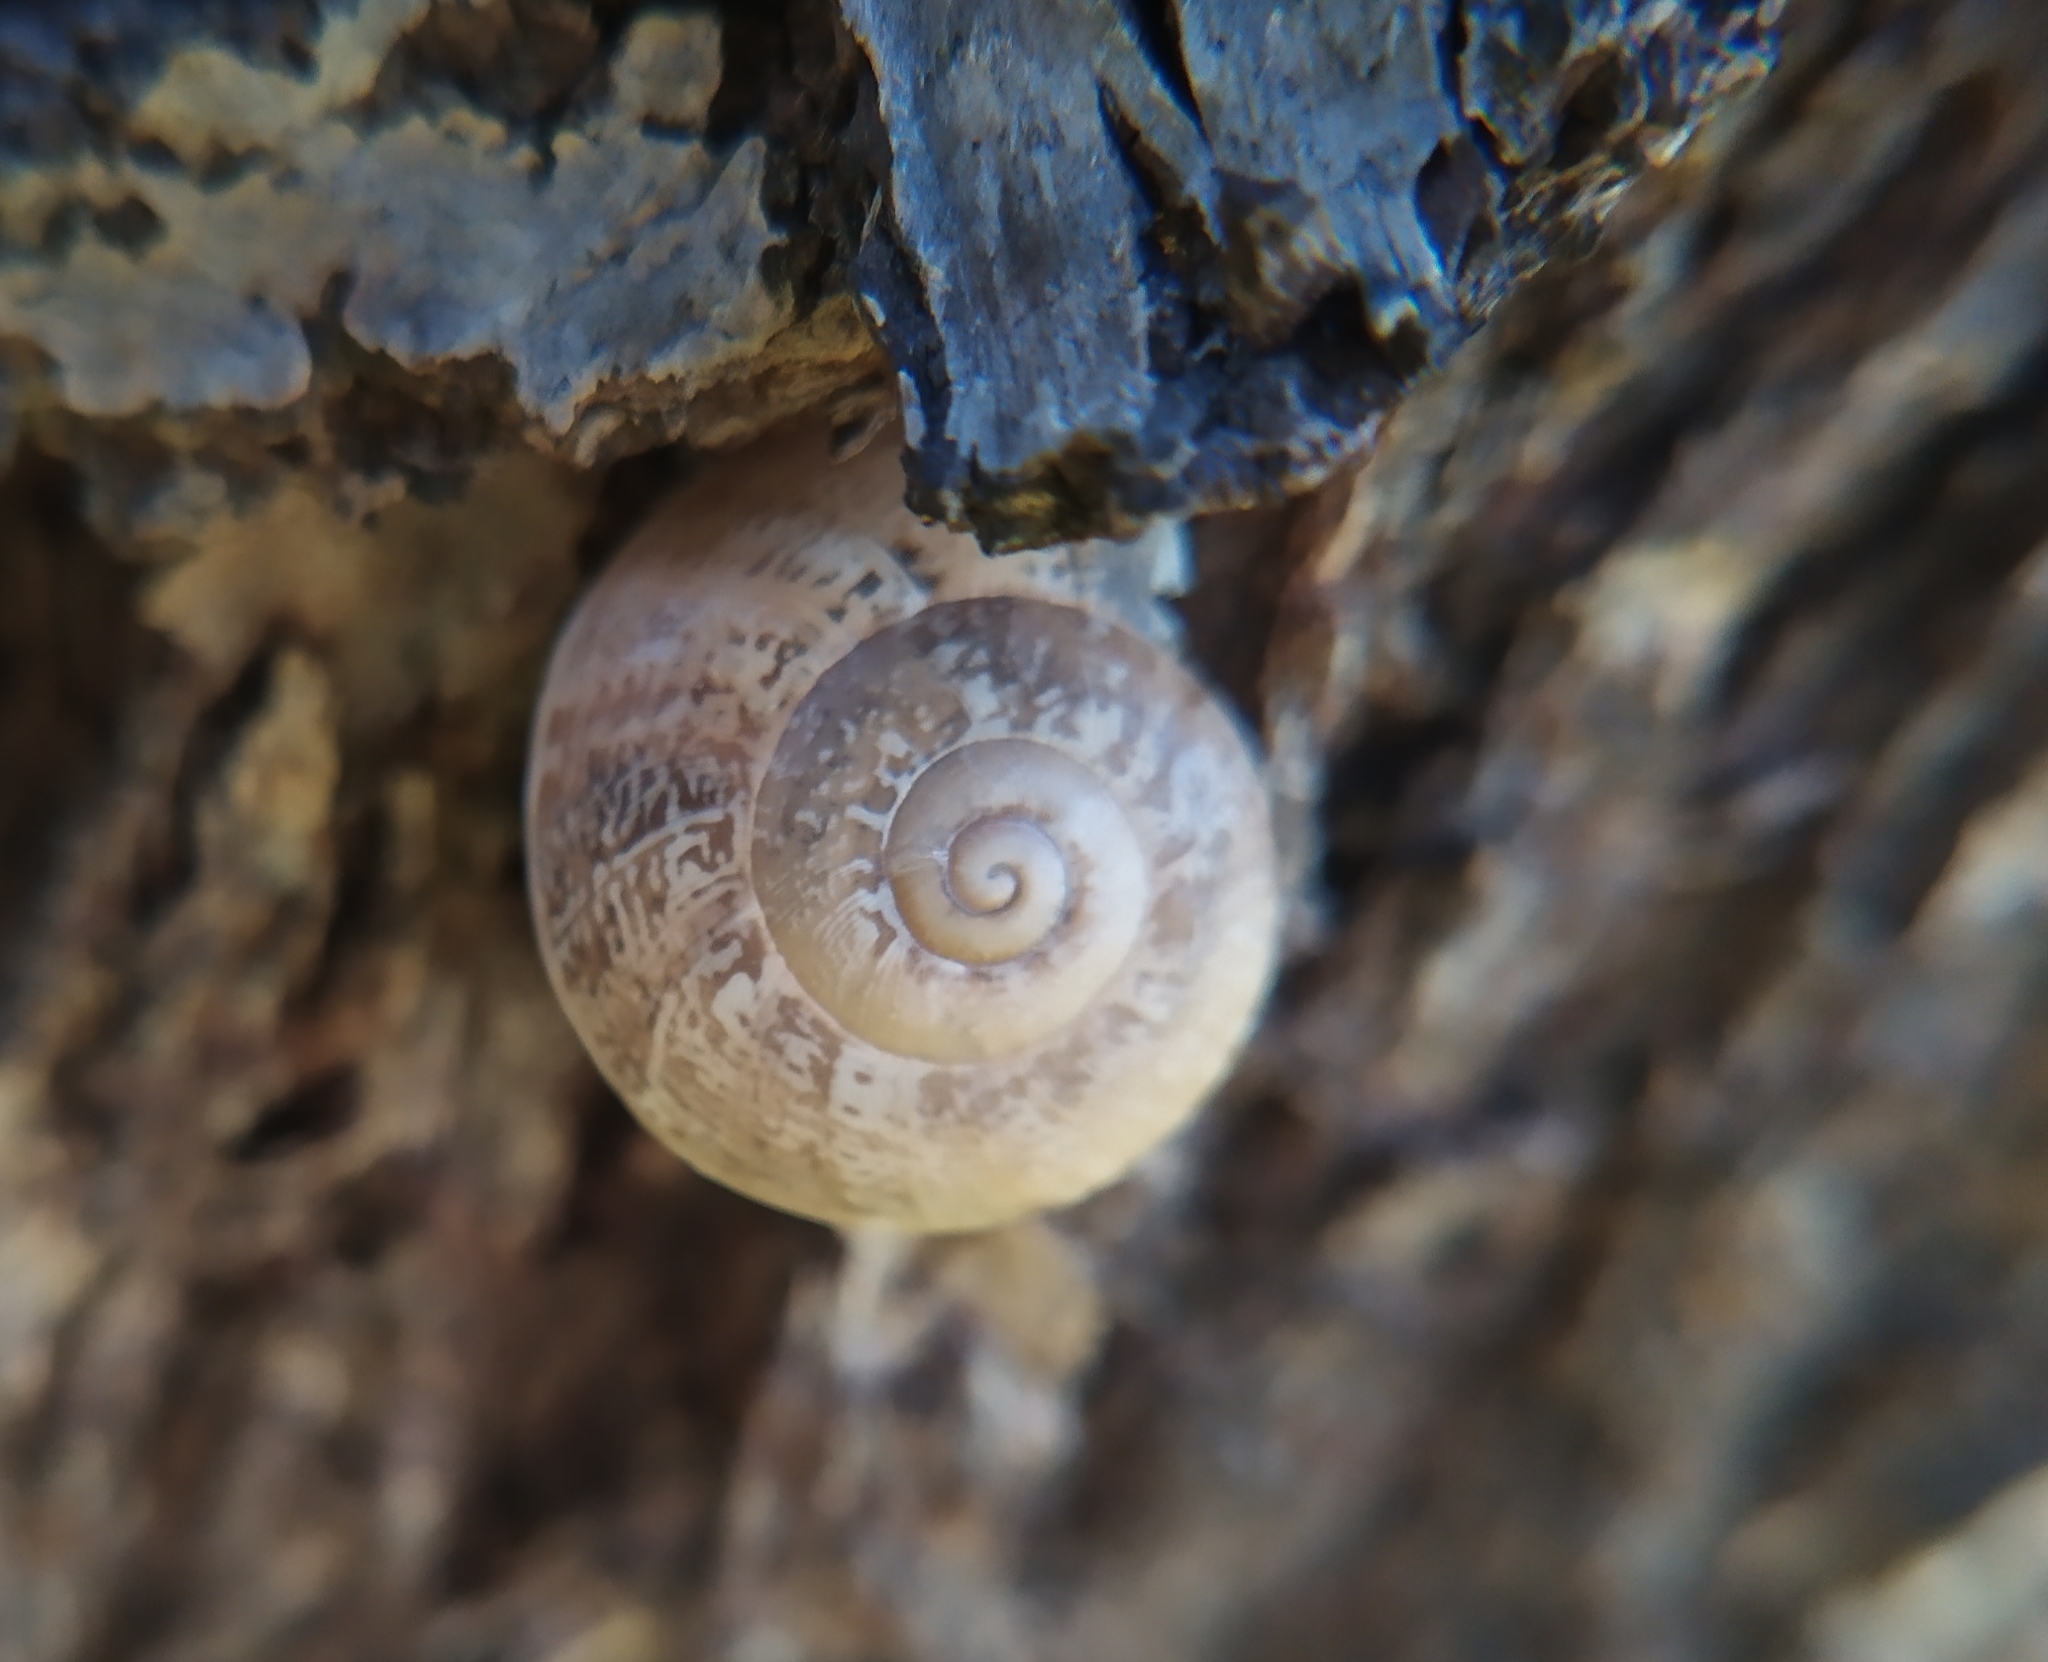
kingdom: Animalia
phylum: Mollusca
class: Gastropoda
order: Stylommatophora
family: Helicidae
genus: Eobania
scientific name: Eobania vermiculata
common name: Chocolateband snail
